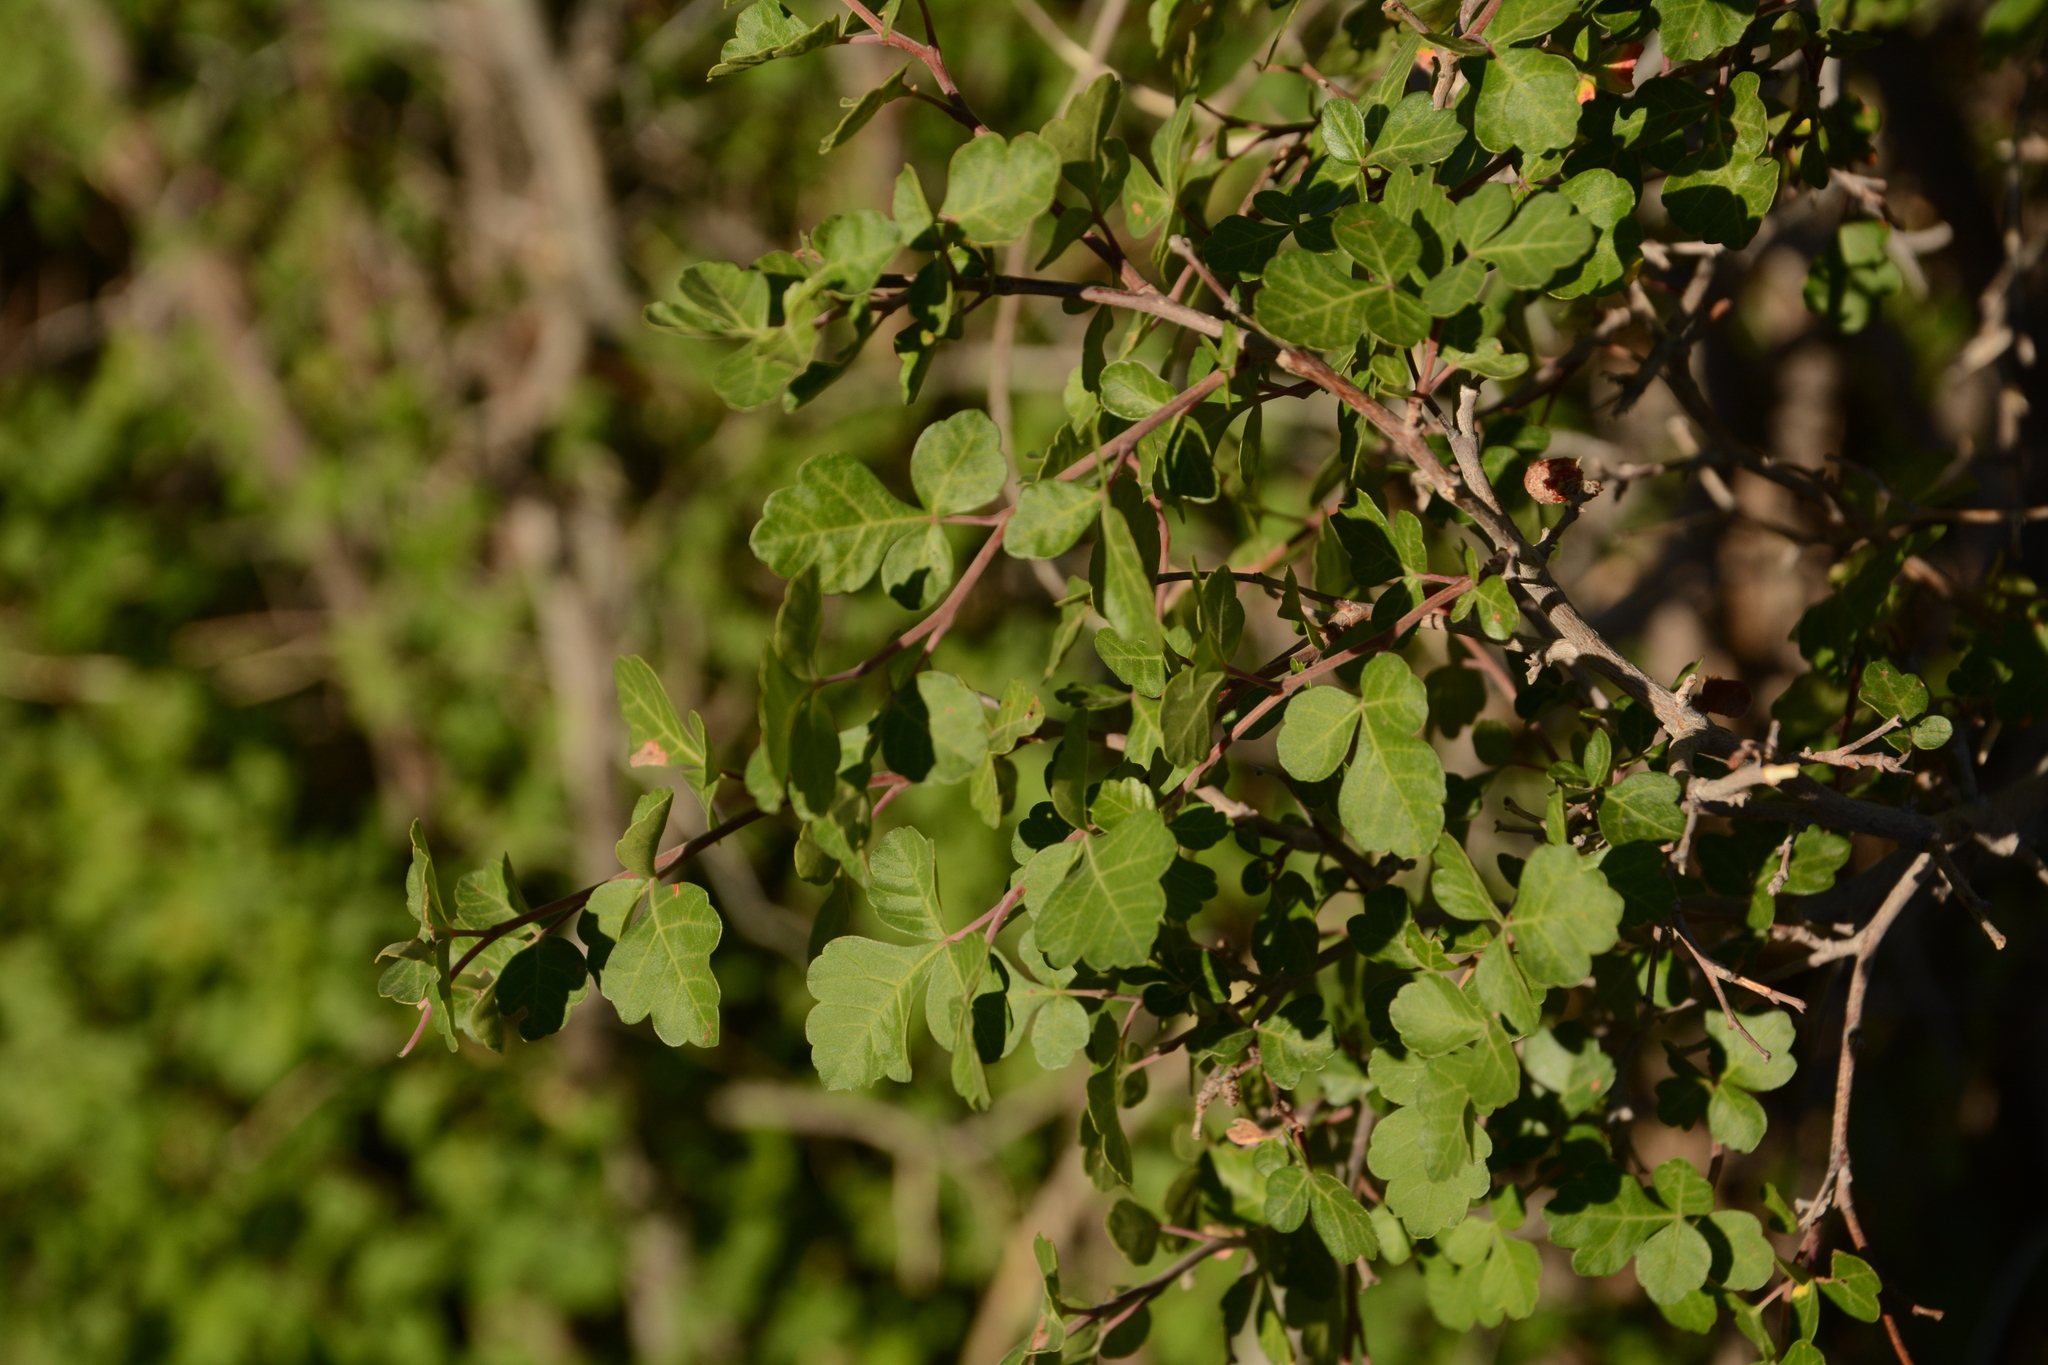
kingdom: Plantae
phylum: Tracheophyta
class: Magnoliopsida
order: Sapindales
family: Anacardiaceae
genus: Rhus
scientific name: Rhus aromatica
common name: Aromatic sumac
